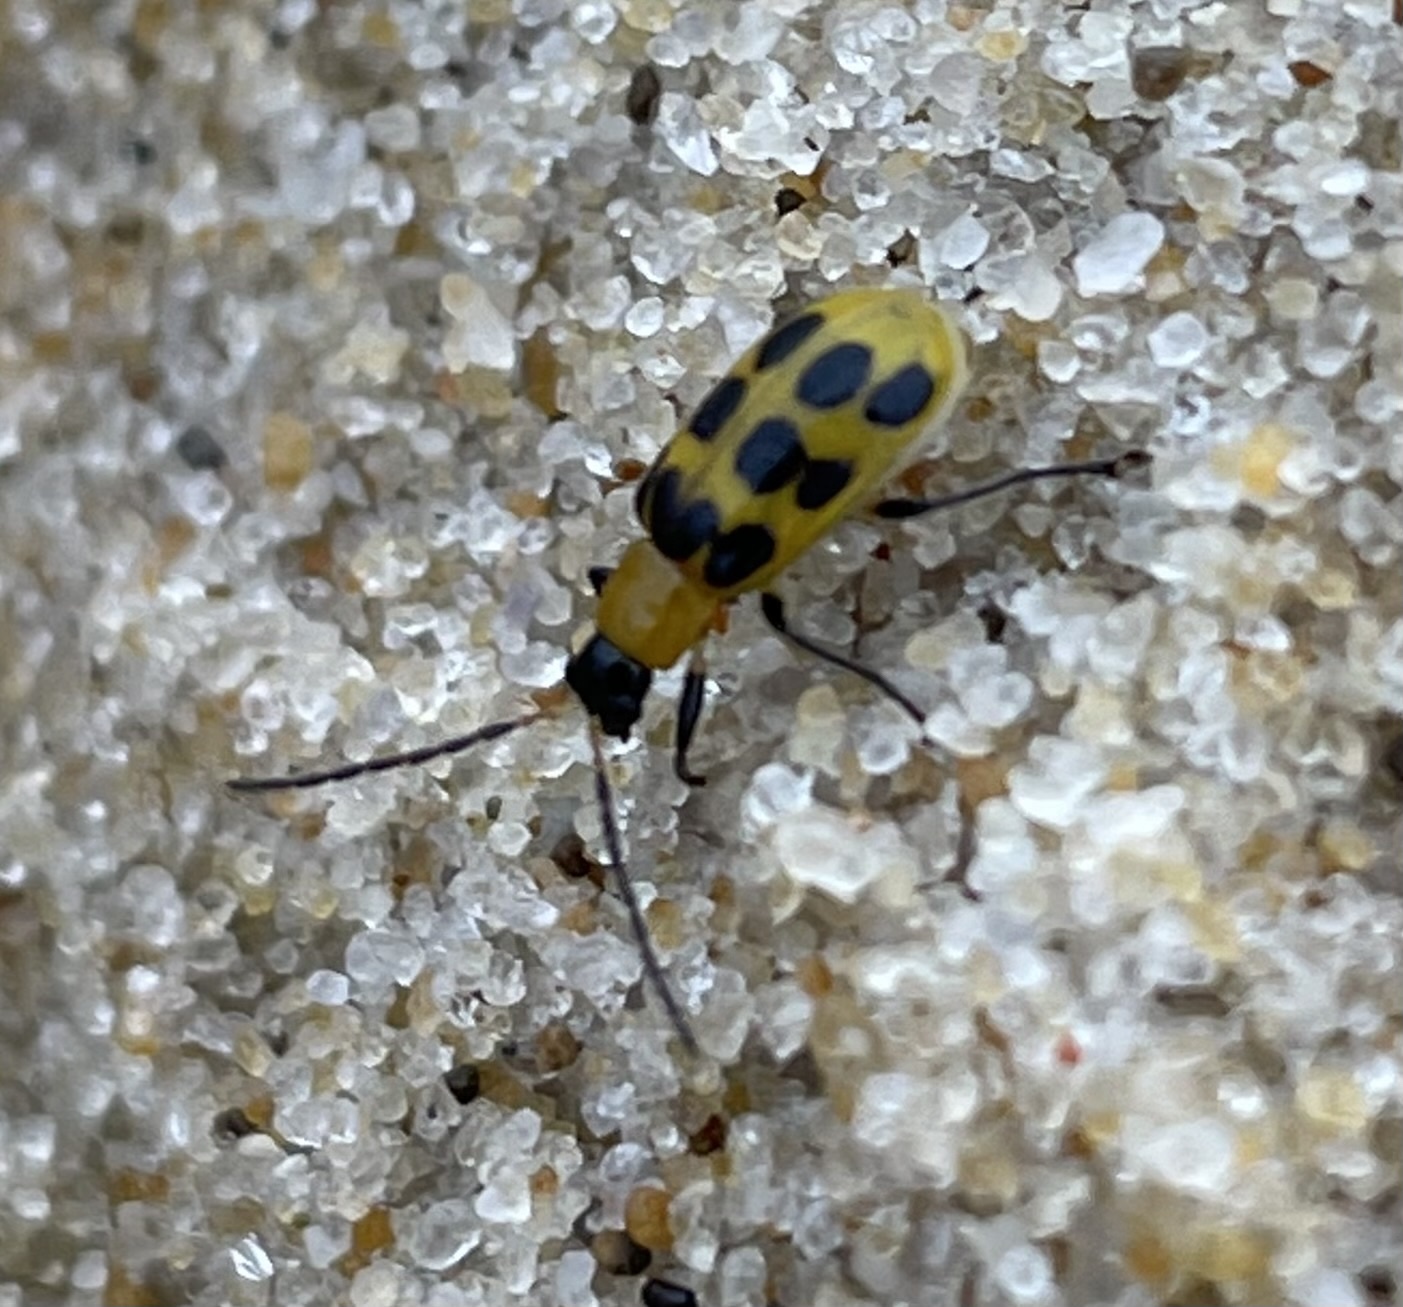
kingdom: Animalia
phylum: Arthropoda
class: Insecta
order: Coleoptera
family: Chrysomelidae
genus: Diabrotica
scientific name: Diabrotica undecimpunctata
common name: Spotted cucumber beetle
